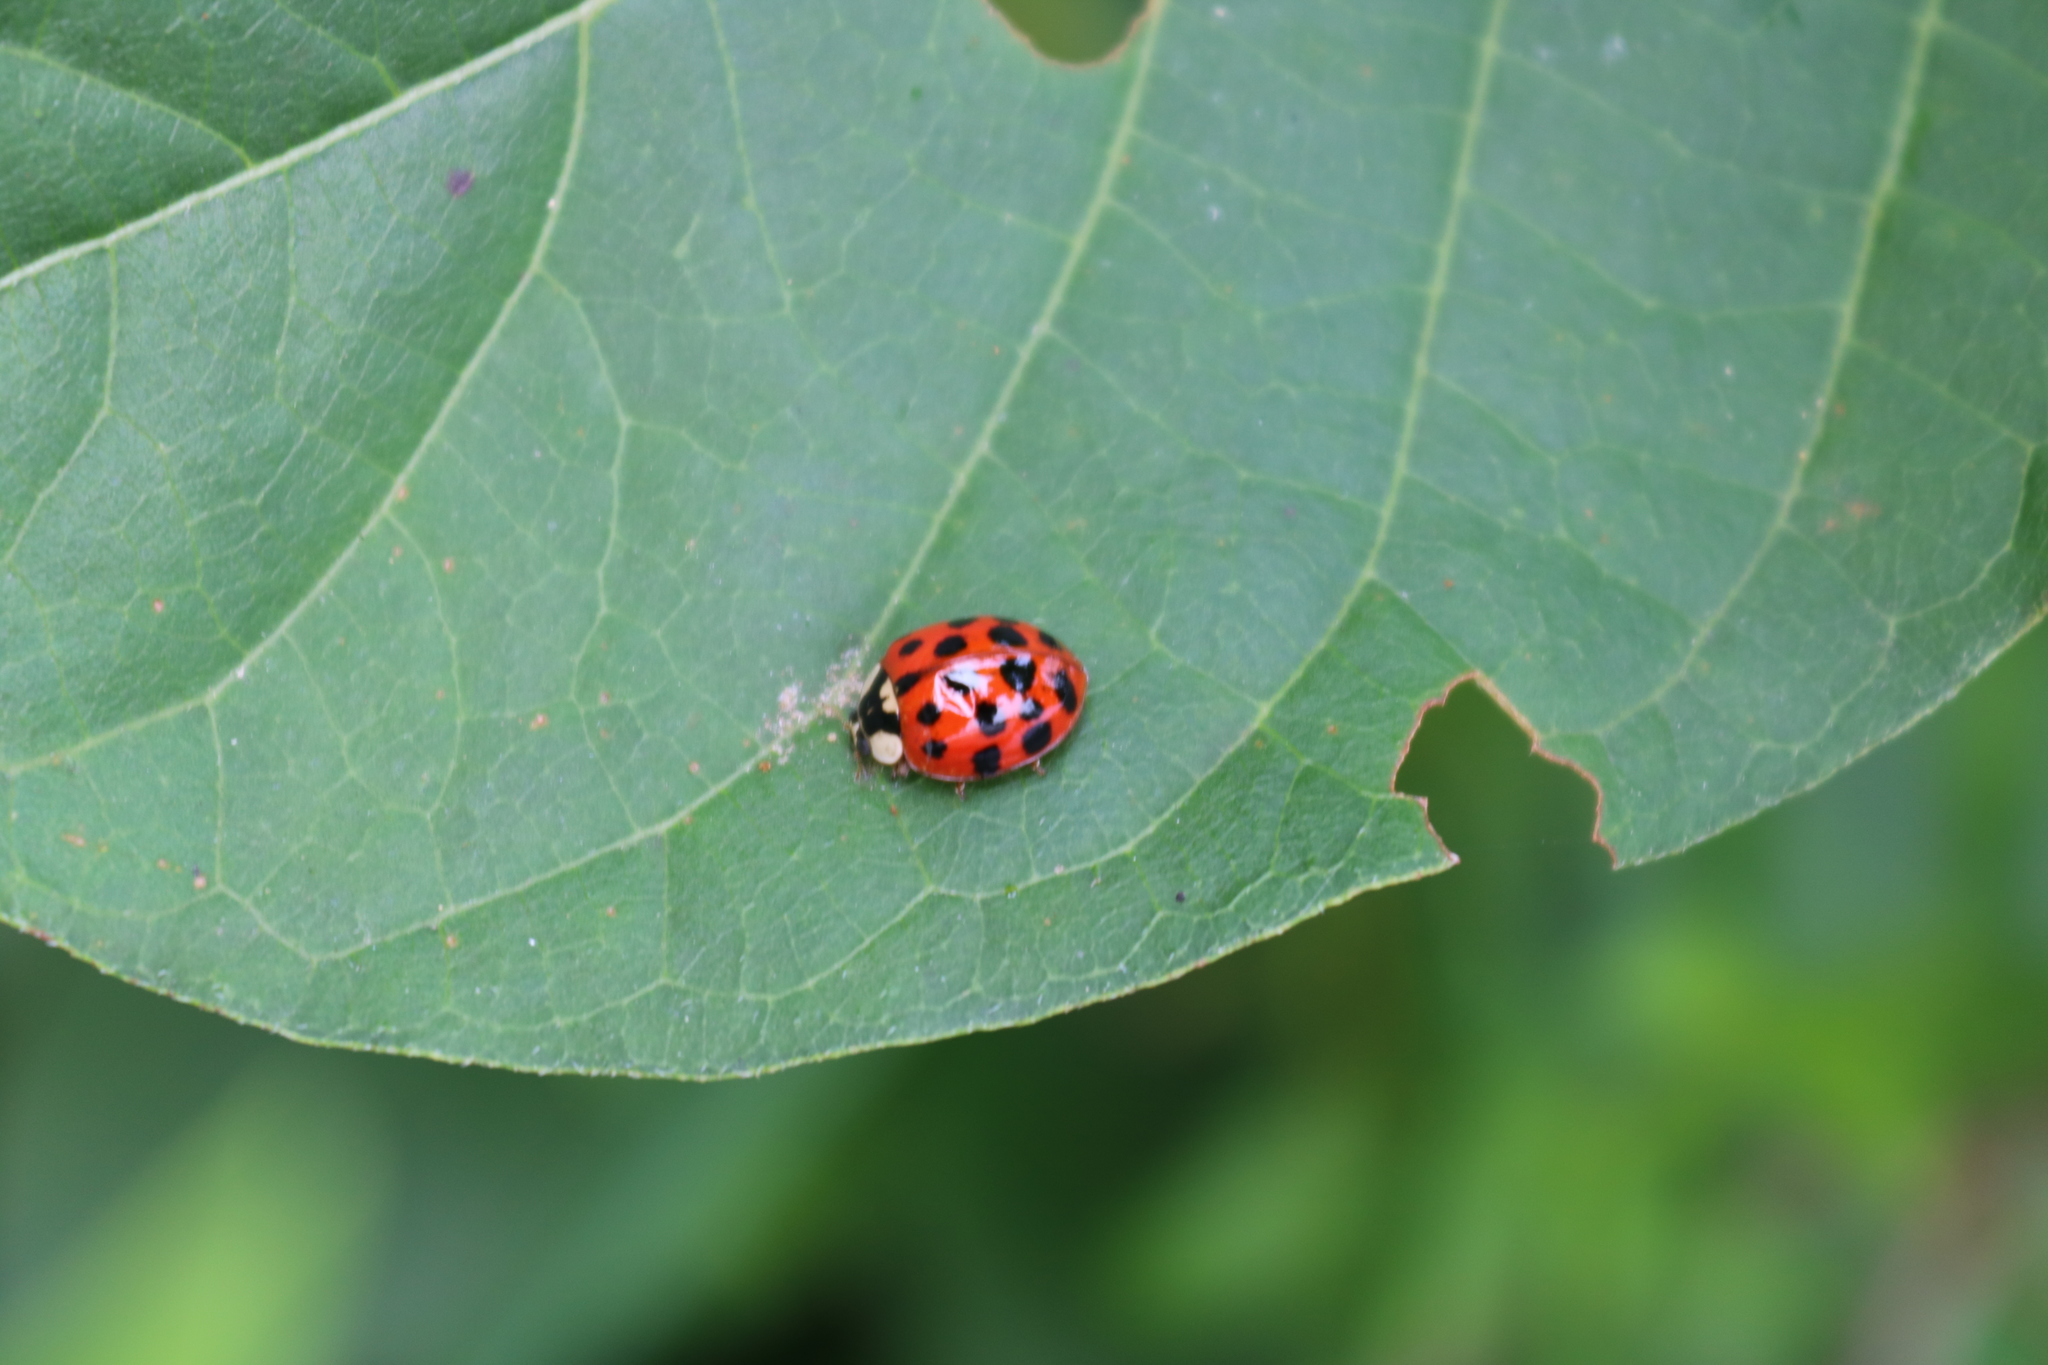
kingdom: Animalia
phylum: Arthropoda
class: Insecta
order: Coleoptera
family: Coccinellidae
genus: Harmonia
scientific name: Harmonia axyridis
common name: Harlequin ladybird
